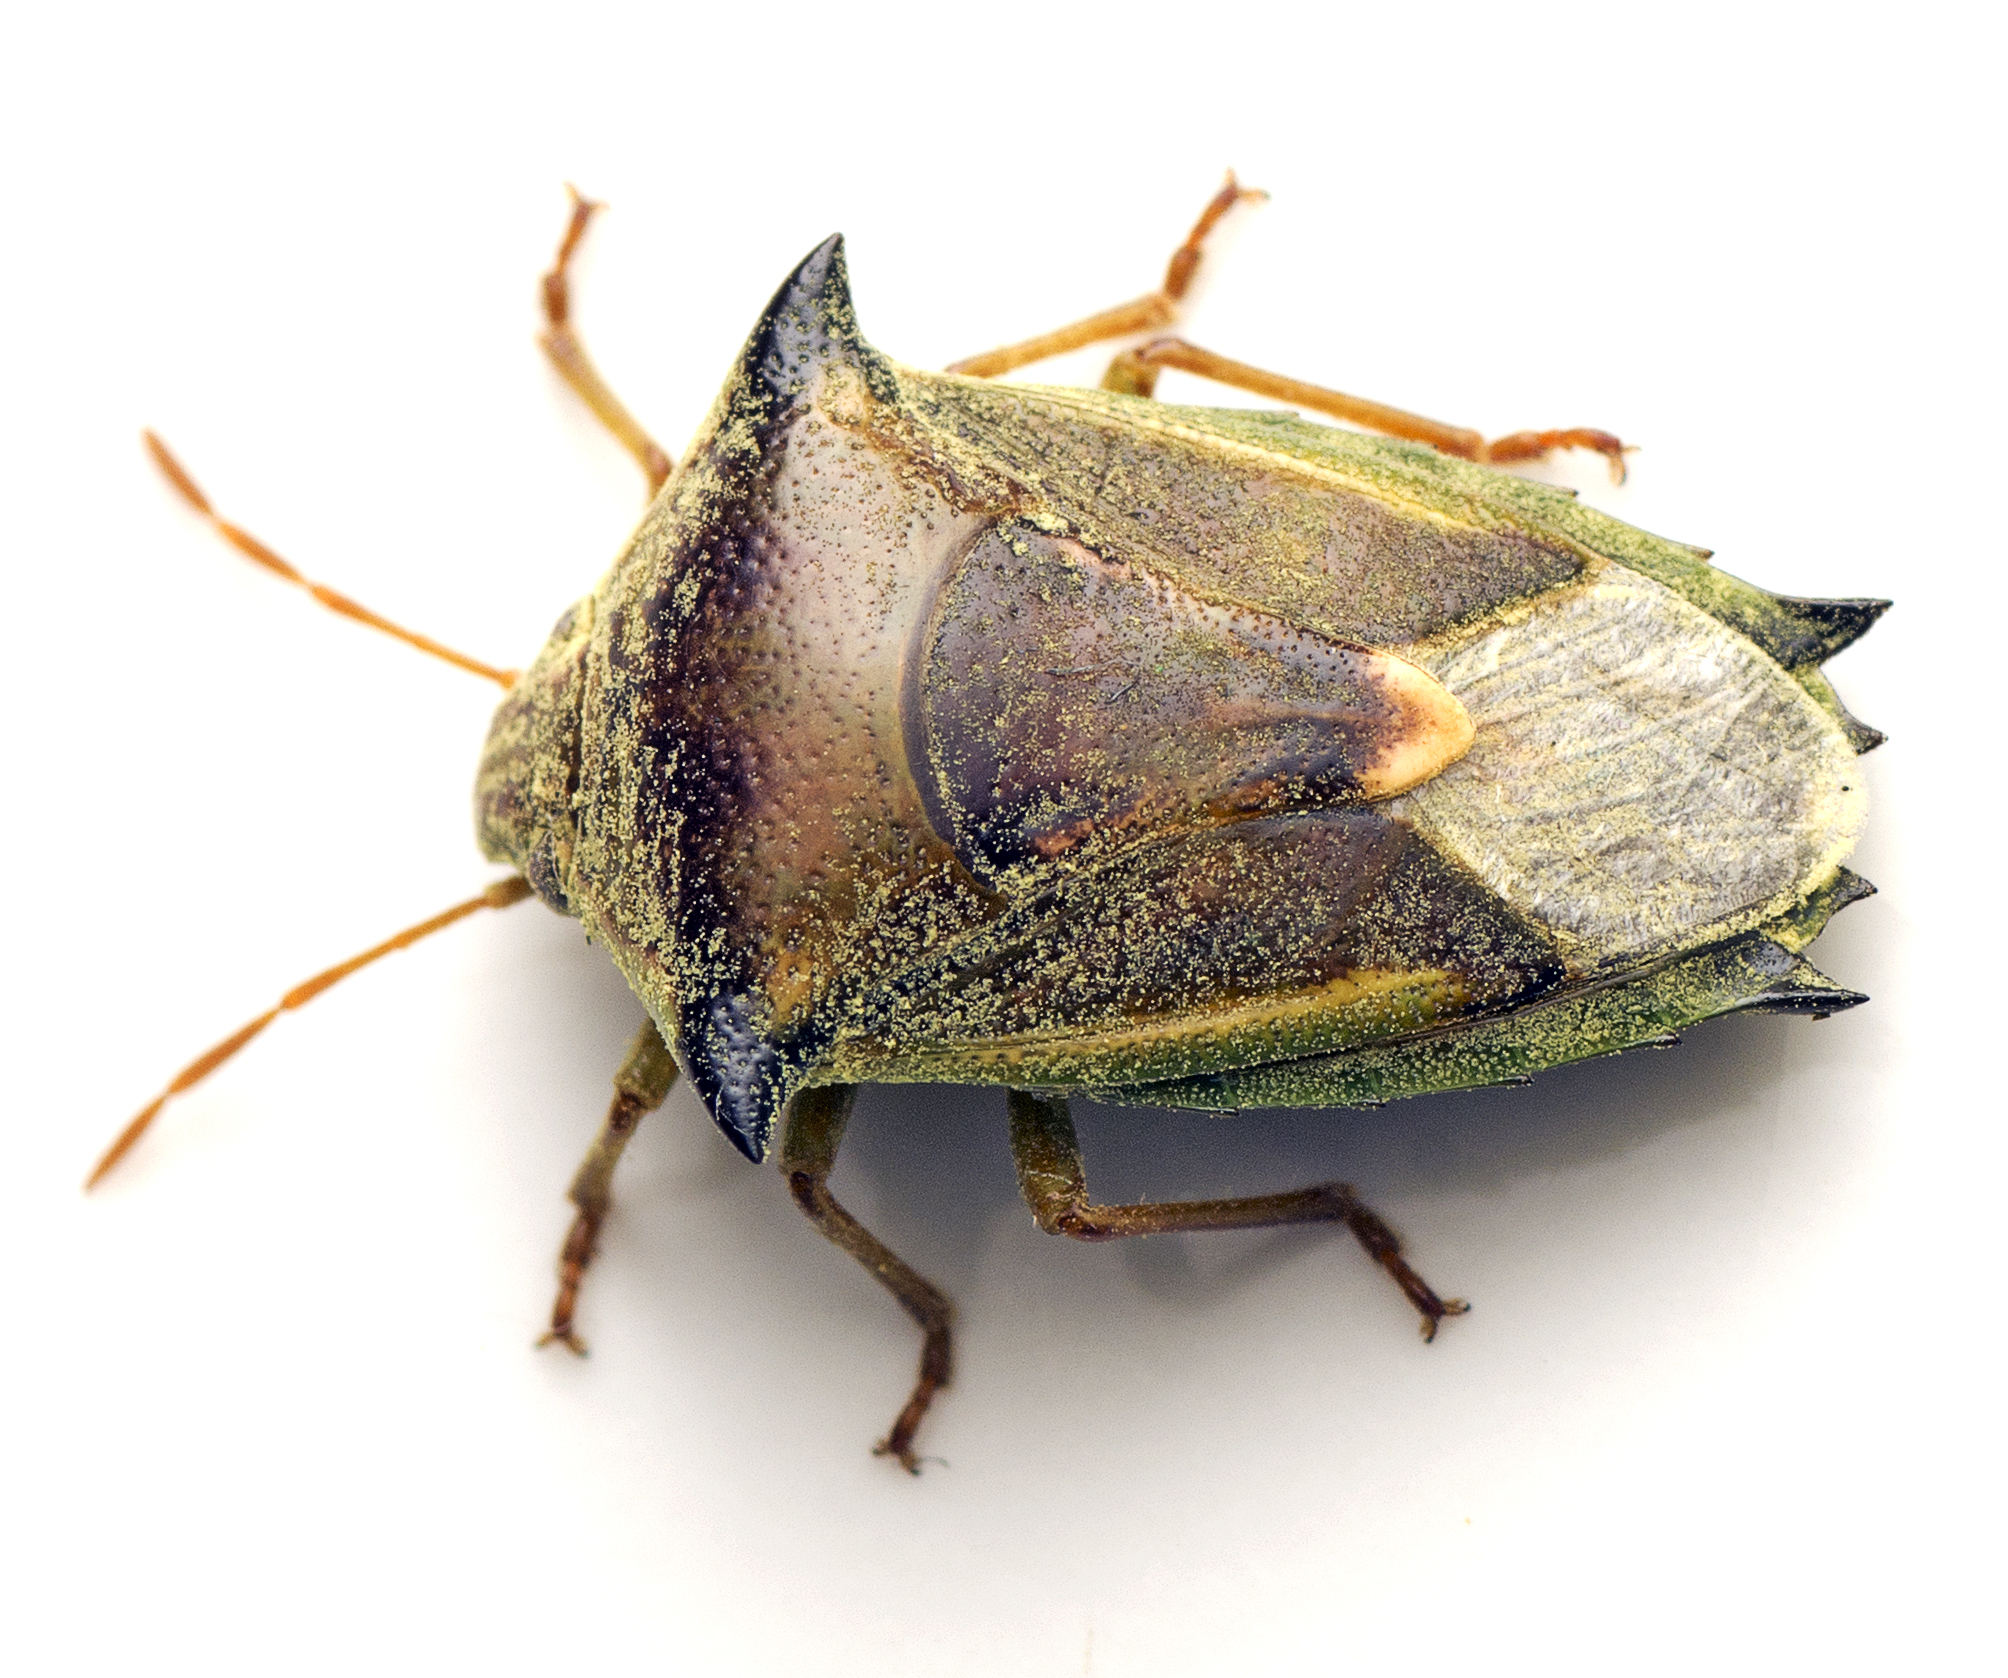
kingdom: Animalia
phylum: Arthropoda
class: Insecta
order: Hemiptera
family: Pentatomidae
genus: Morna
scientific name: Morna
